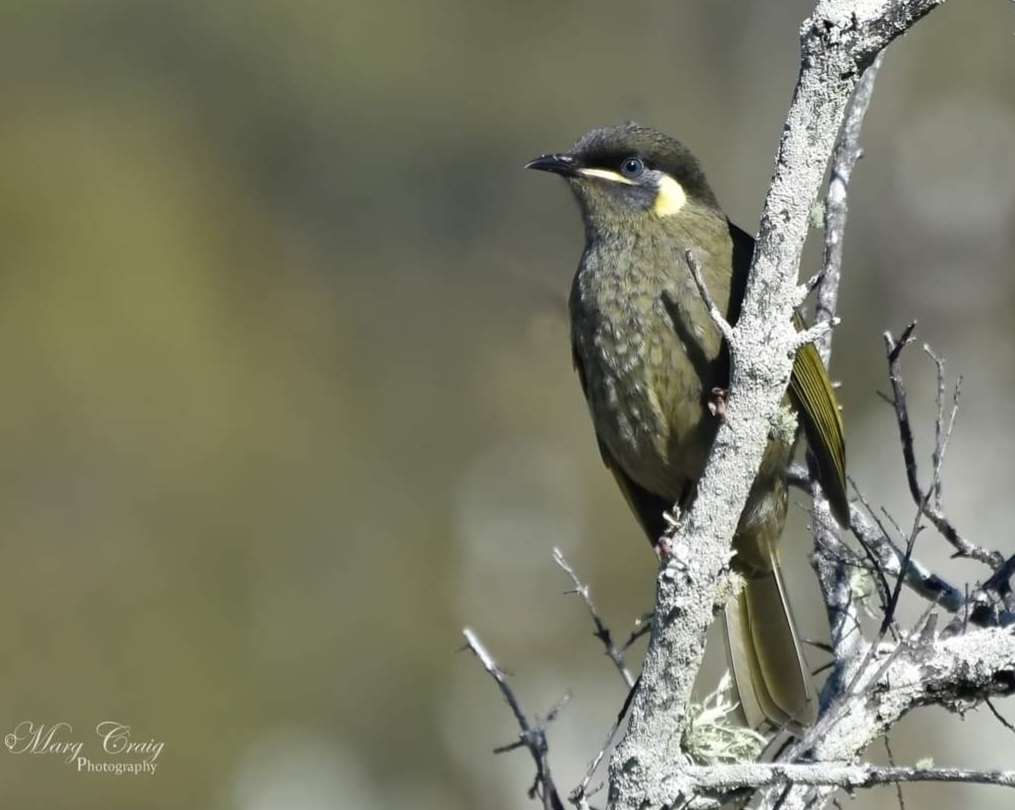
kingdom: Animalia
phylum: Chordata
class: Aves
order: Passeriformes
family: Meliphagidae
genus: Meliphaga
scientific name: Meliphaga lewinii
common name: Lewin's honeyeater
